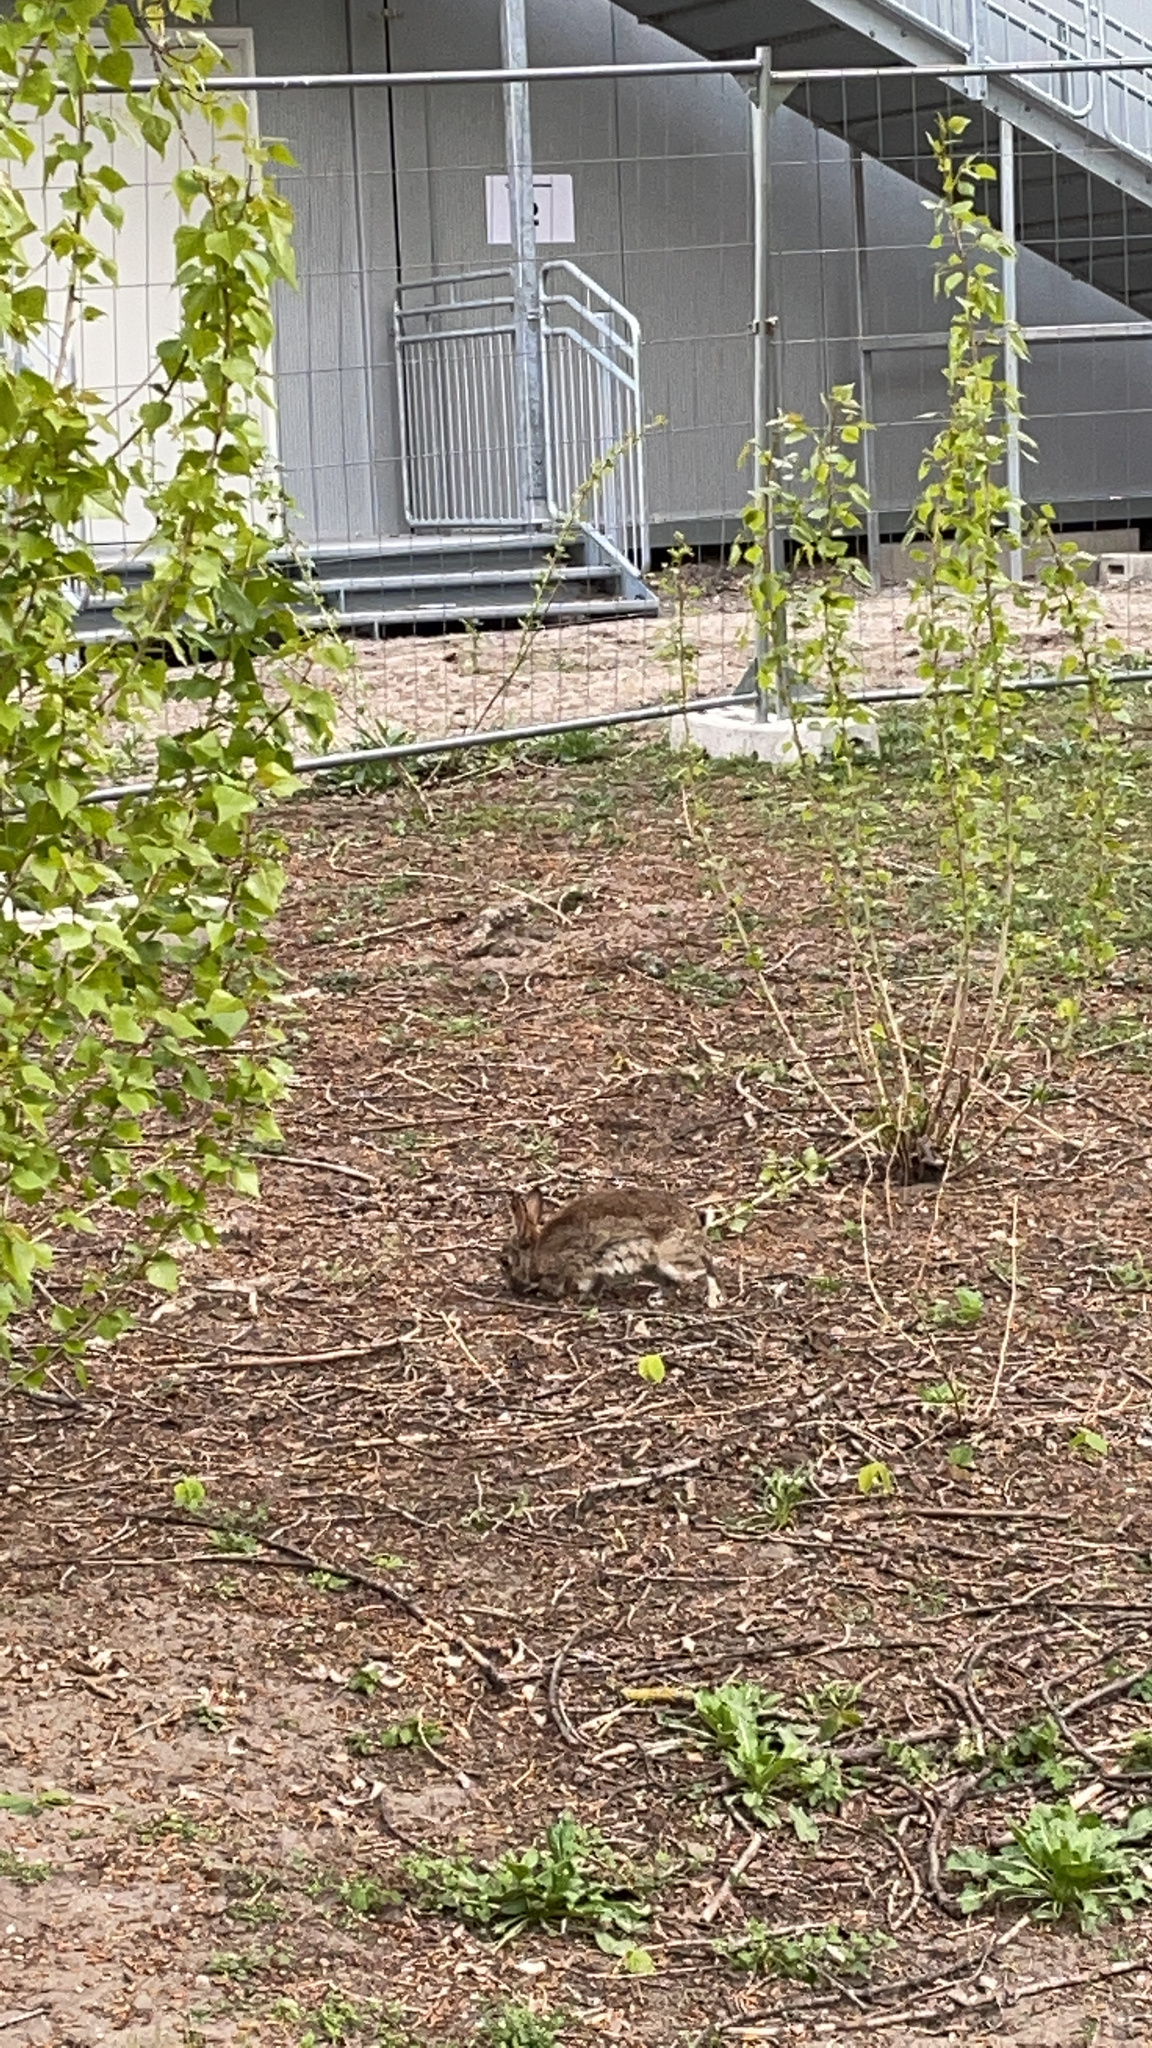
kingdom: Animalia
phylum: Chordata
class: Mammalia
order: Lagomorpha
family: Leporidae
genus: Oryctolagus
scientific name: Oryctolagus cuniculus
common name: European rabbit
